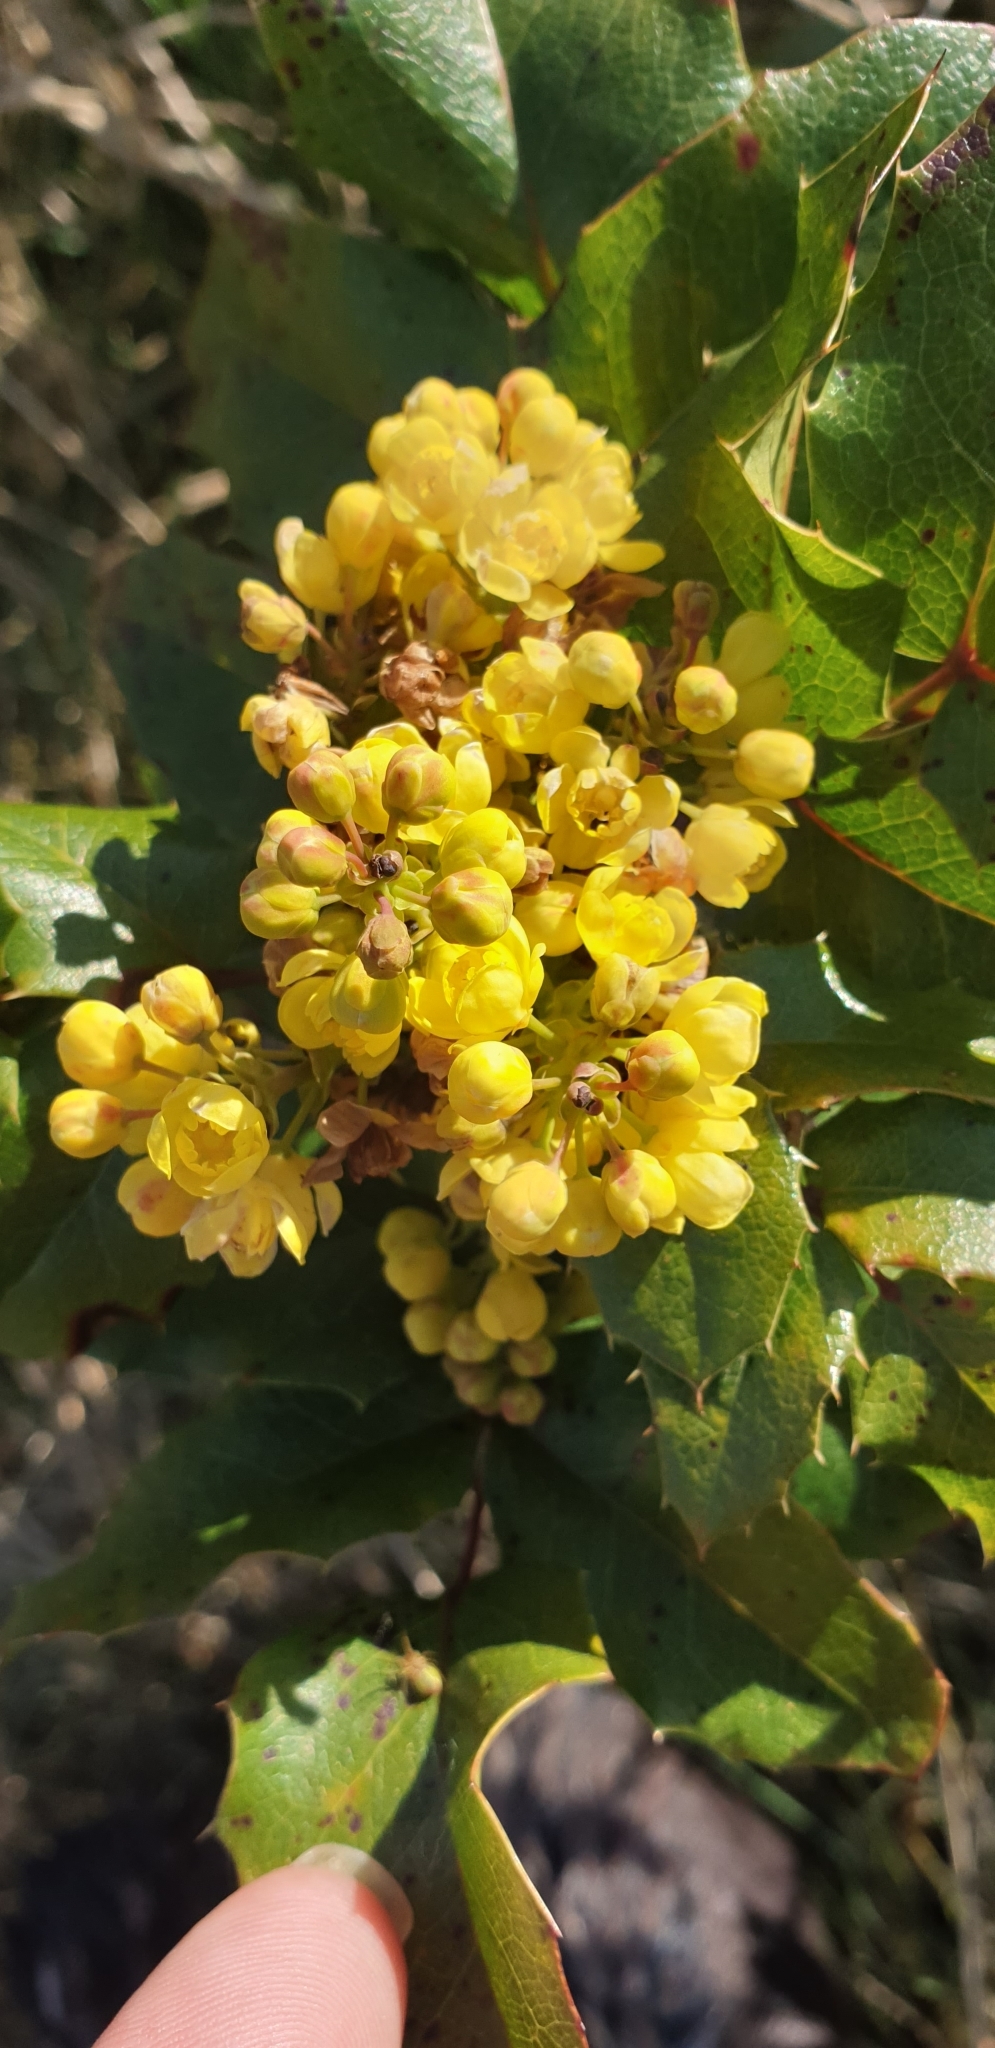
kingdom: Plantae
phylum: Tracheophyta
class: Magnoliopsida
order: Ranunculales
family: Berberidaceae
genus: Mahonia
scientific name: Mahonia aquifolium
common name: Oregon-grape
